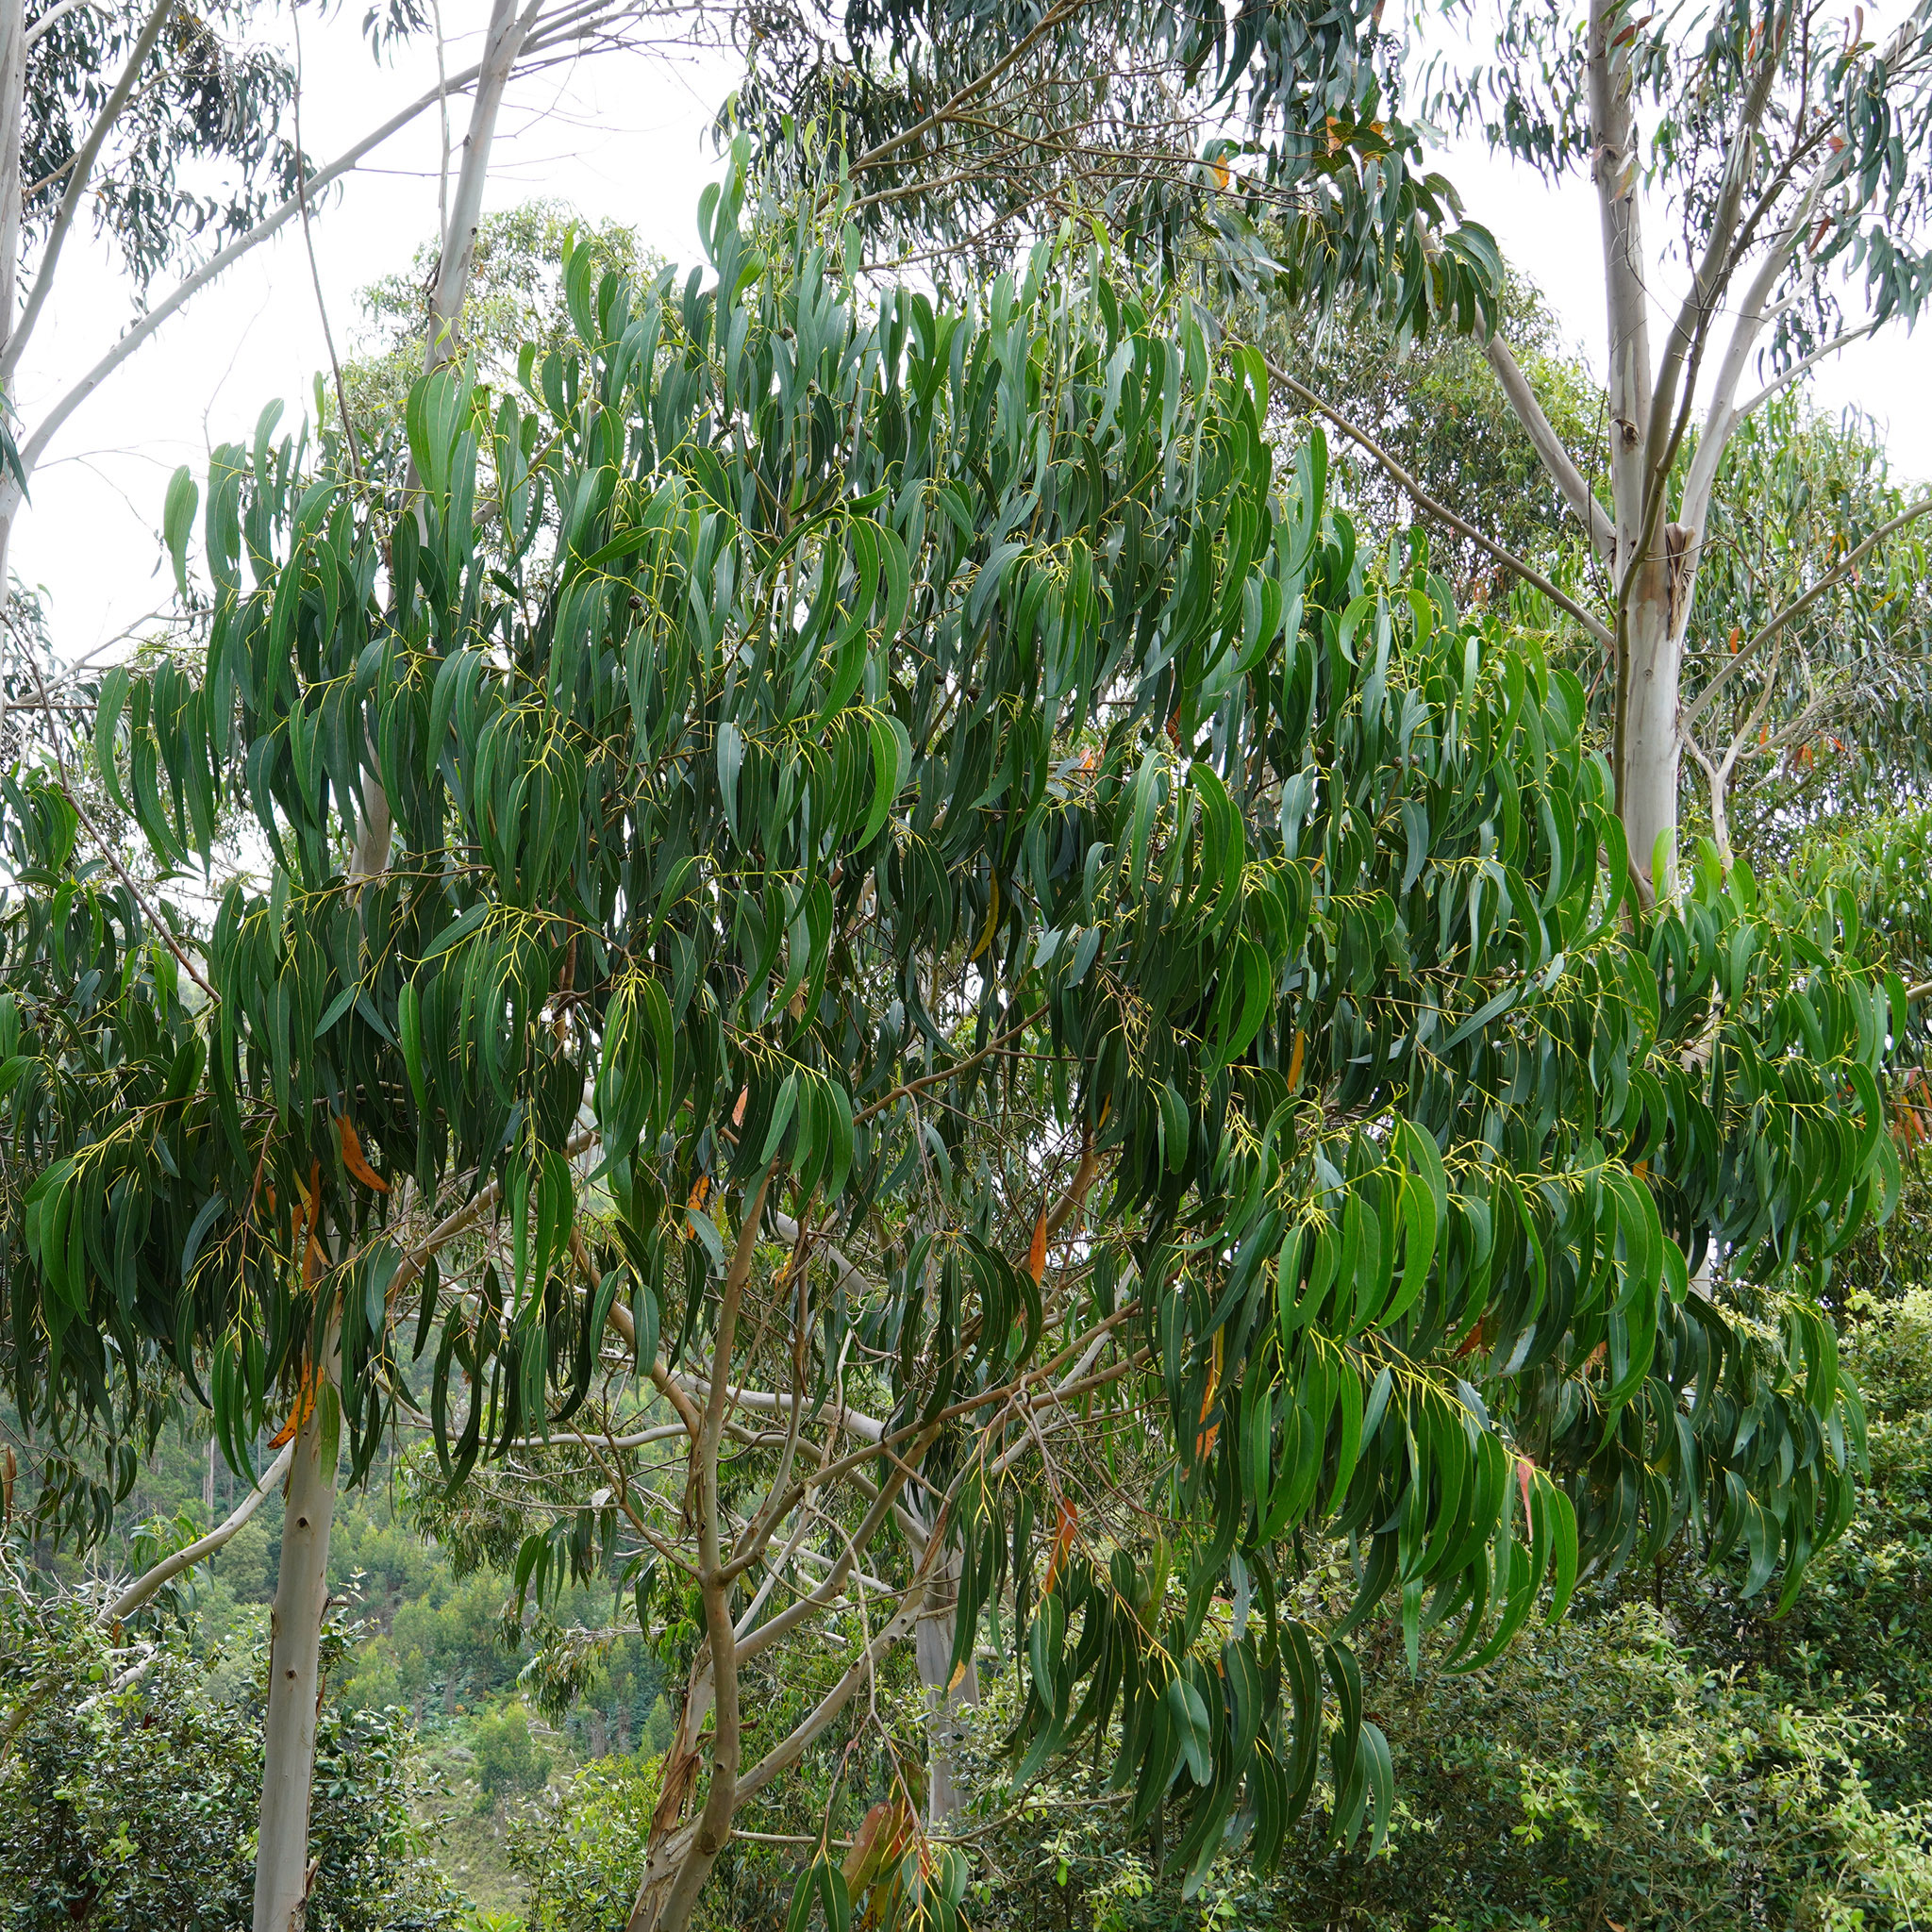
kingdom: Plantae
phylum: Tracheophyta
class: Magnoliopsida
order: Myrtales
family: Myrtaceae
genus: Eucalyptus
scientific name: Eucalyptus globulus
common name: Southern blue-gum
